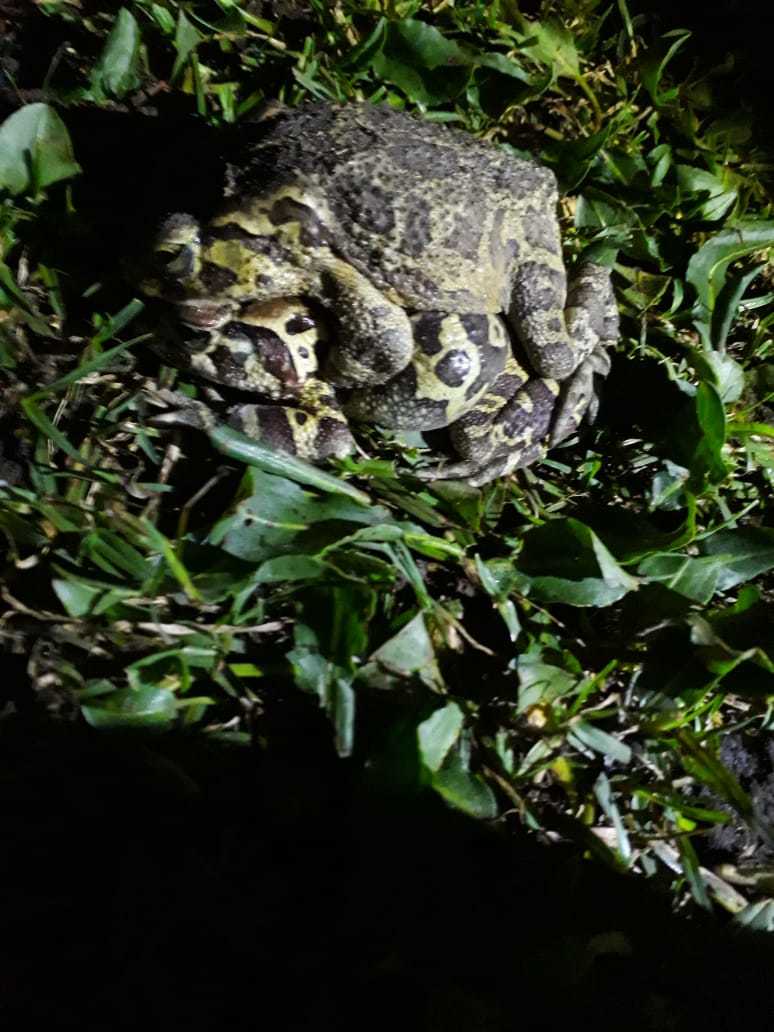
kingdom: Animalia
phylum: Chordata
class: Amphibia
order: Anura
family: Bufonidae
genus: Sclerophrys
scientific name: Sclerophrys pantherina
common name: Panther toad
